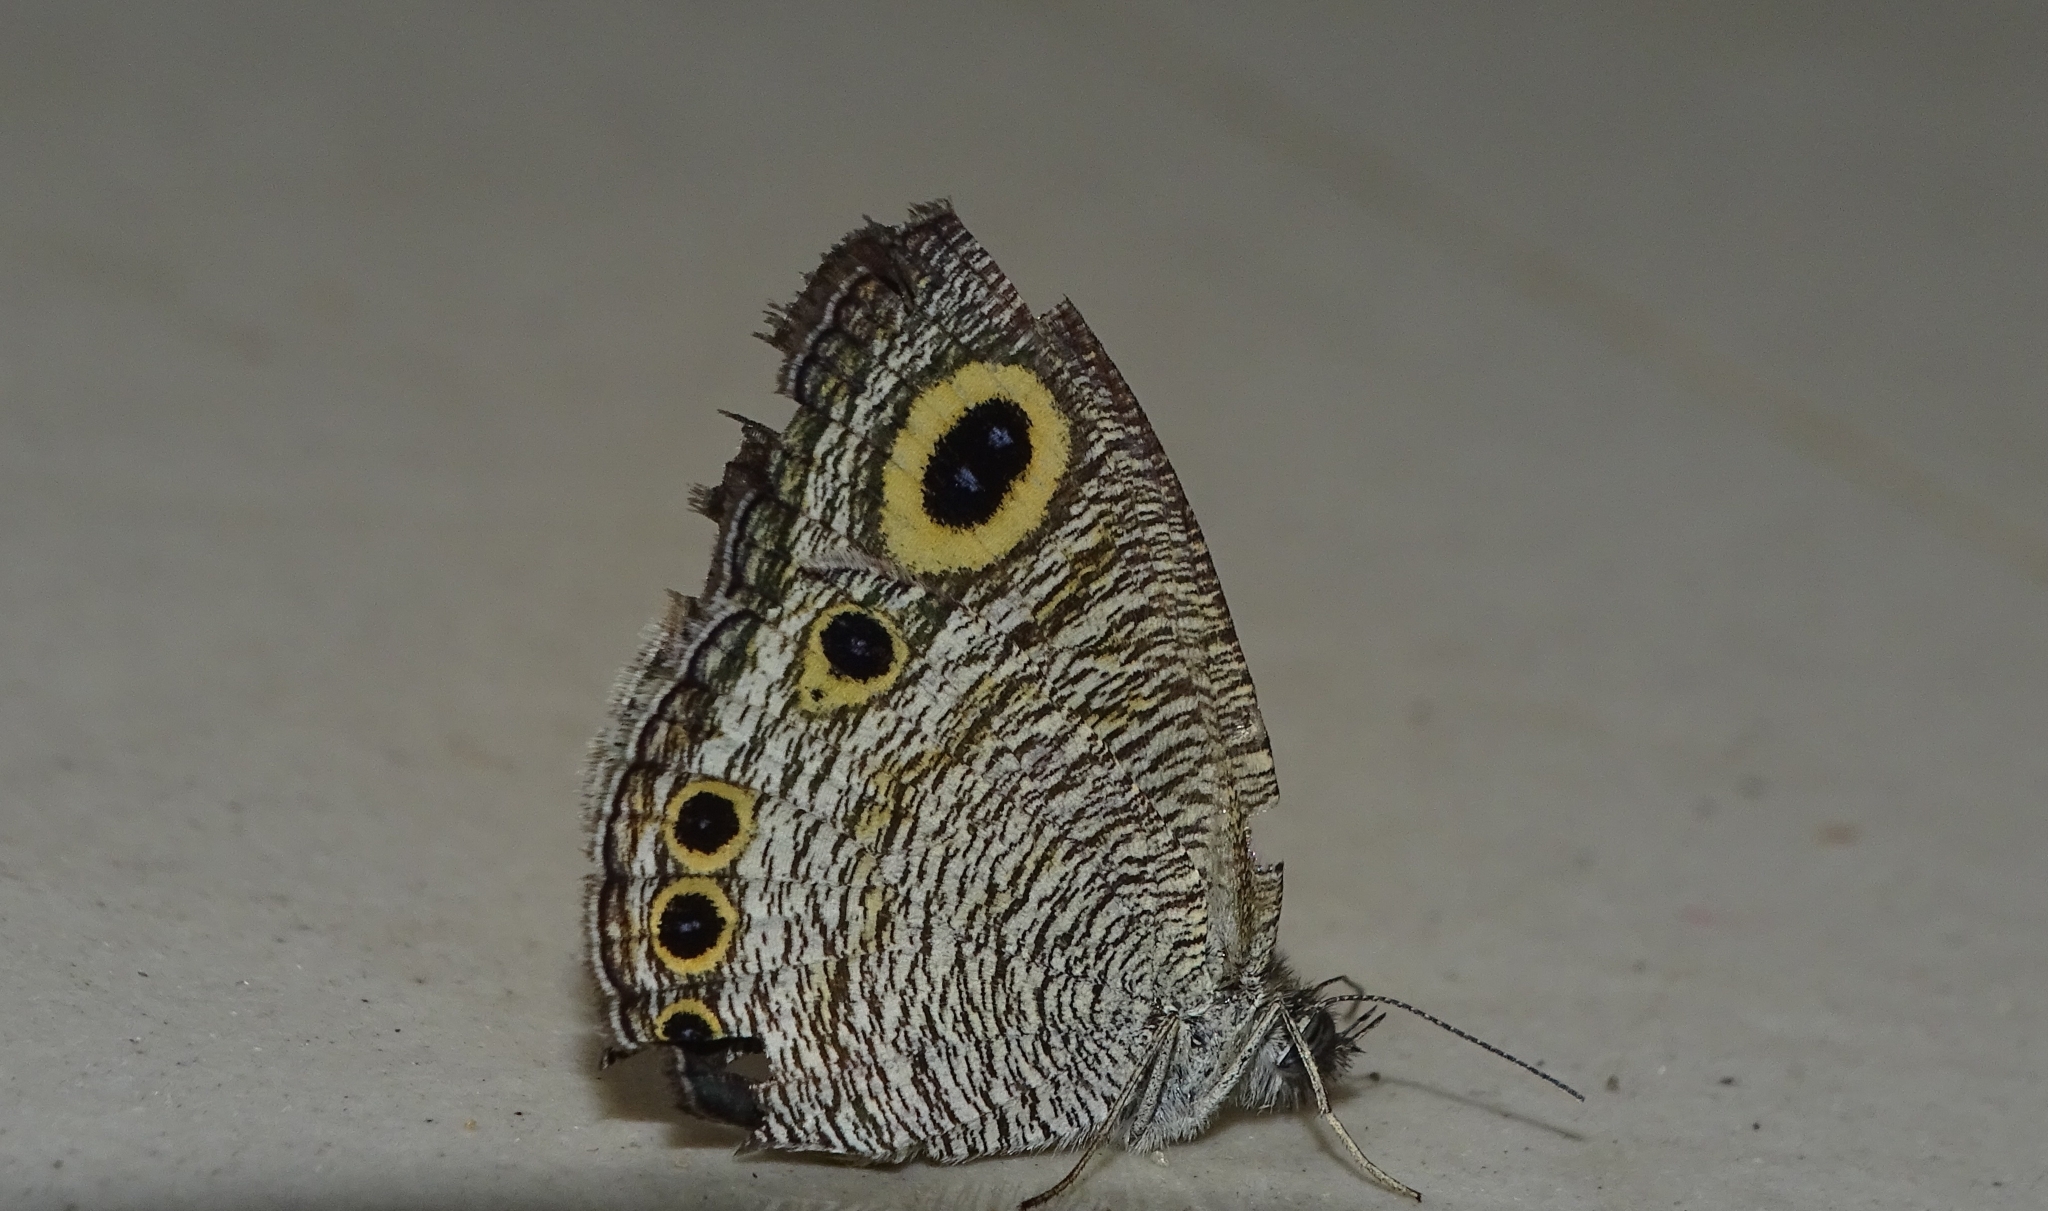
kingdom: Animalia
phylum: Arthropoda
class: Insecta
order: Lepidoptera
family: Nymphalidae
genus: Ypthima
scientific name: Ypthima huebneri
